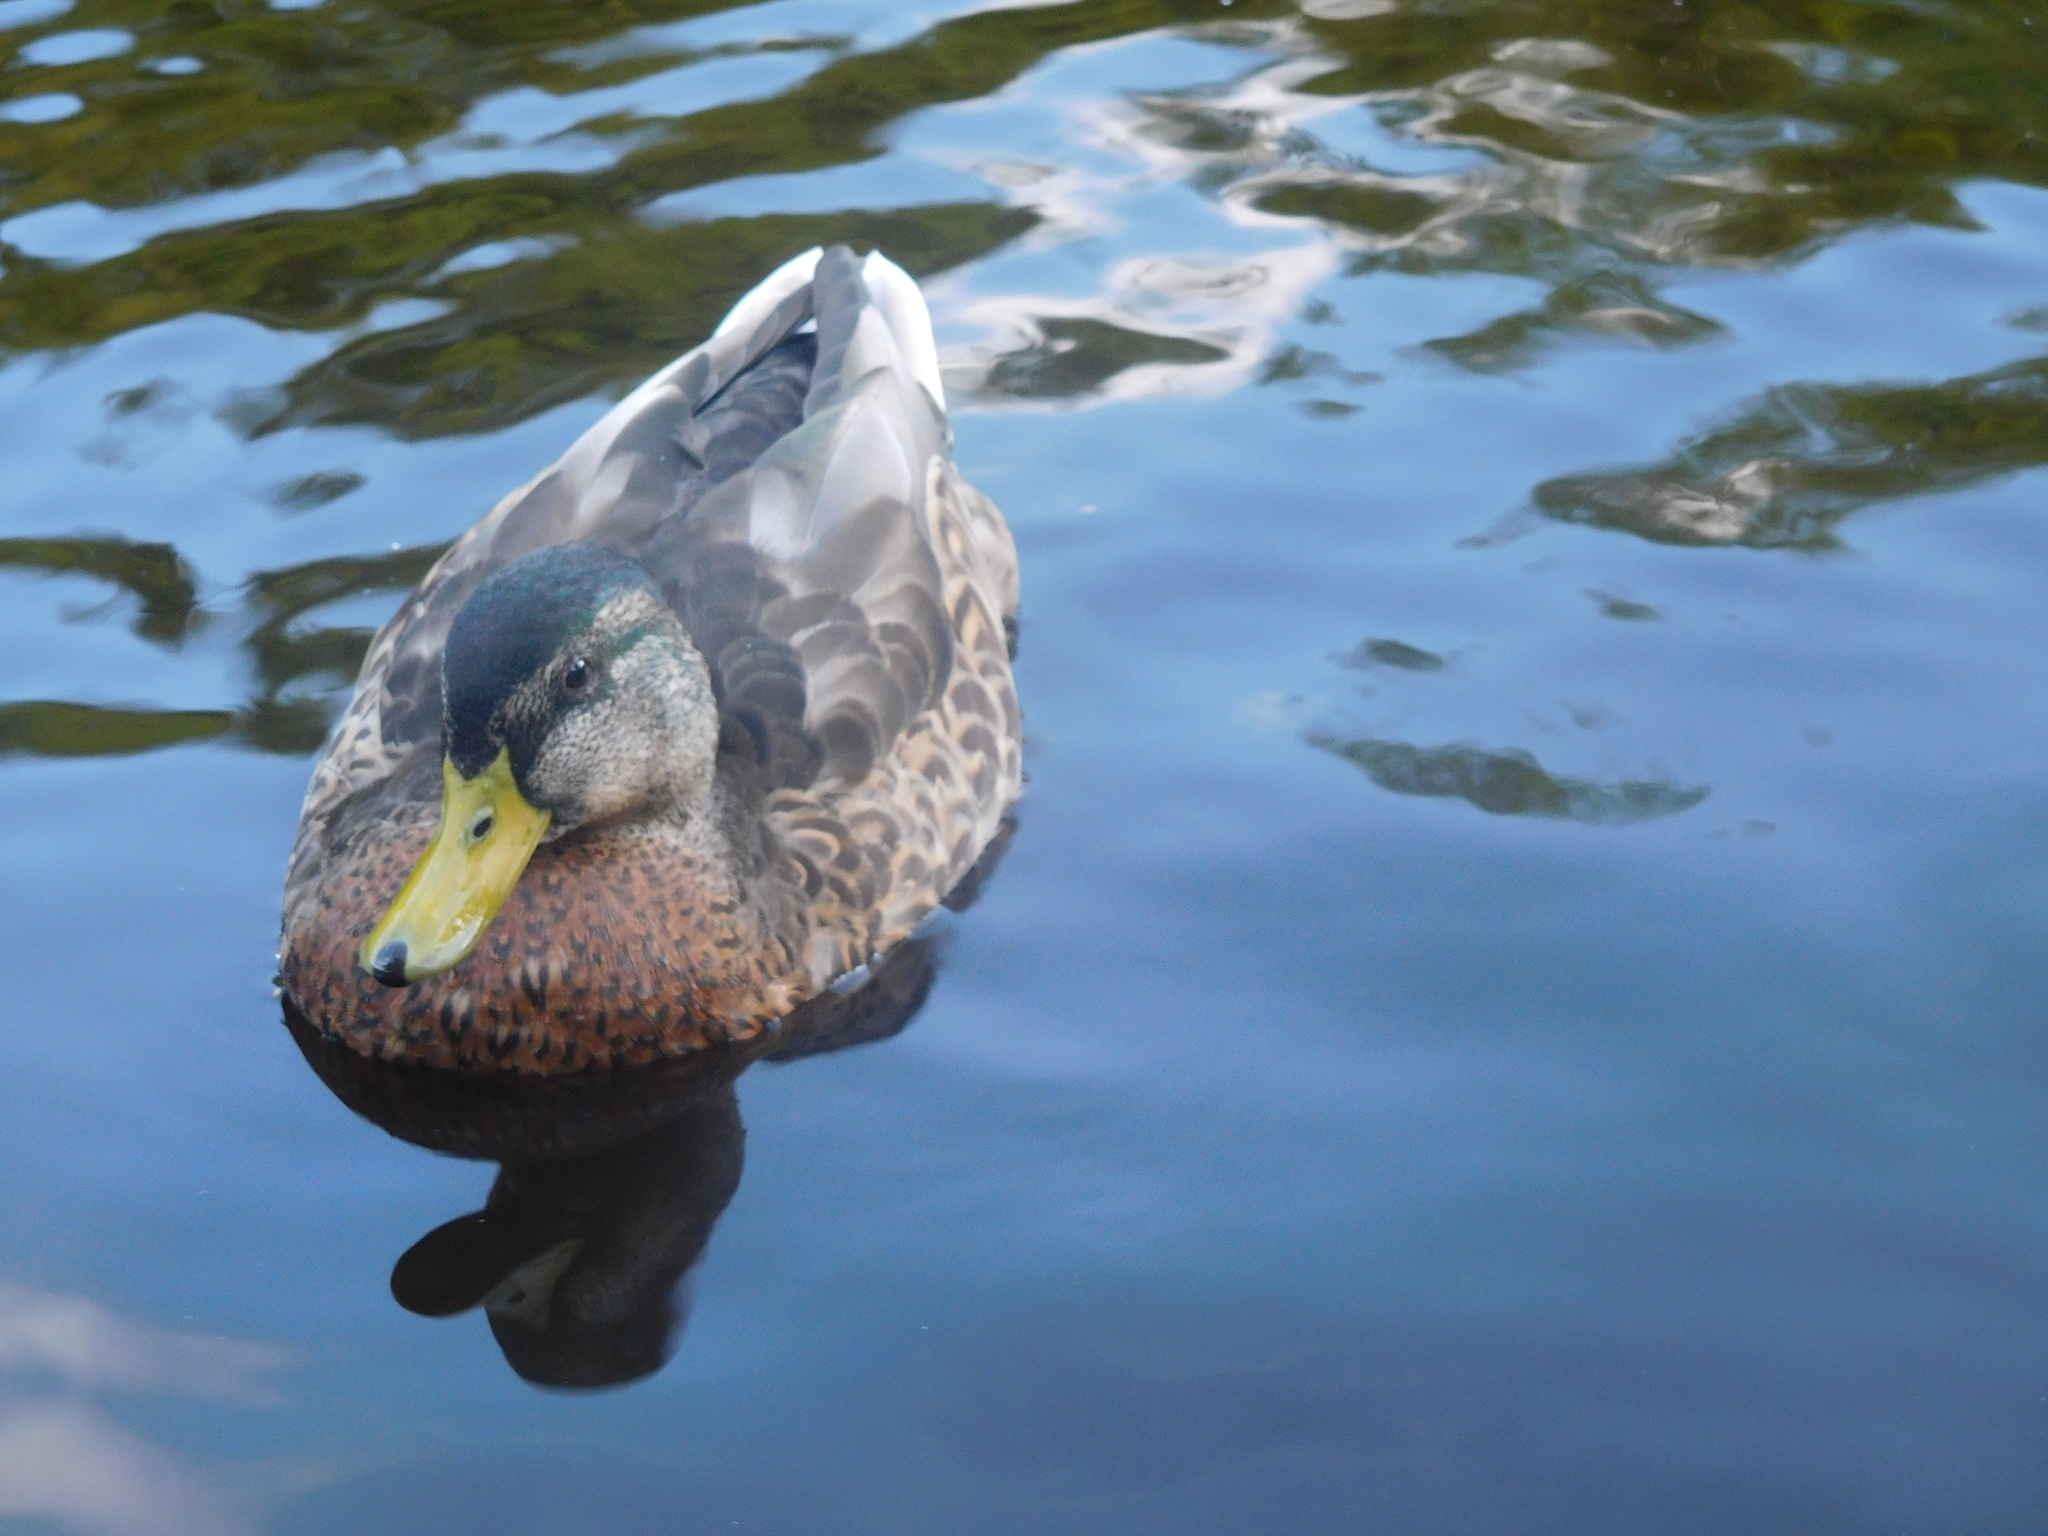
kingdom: Animalia
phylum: Chordata
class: Aves
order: Anseriformes
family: Anatidae
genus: Anas
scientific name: Anas platyrhynchos
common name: Mallard
